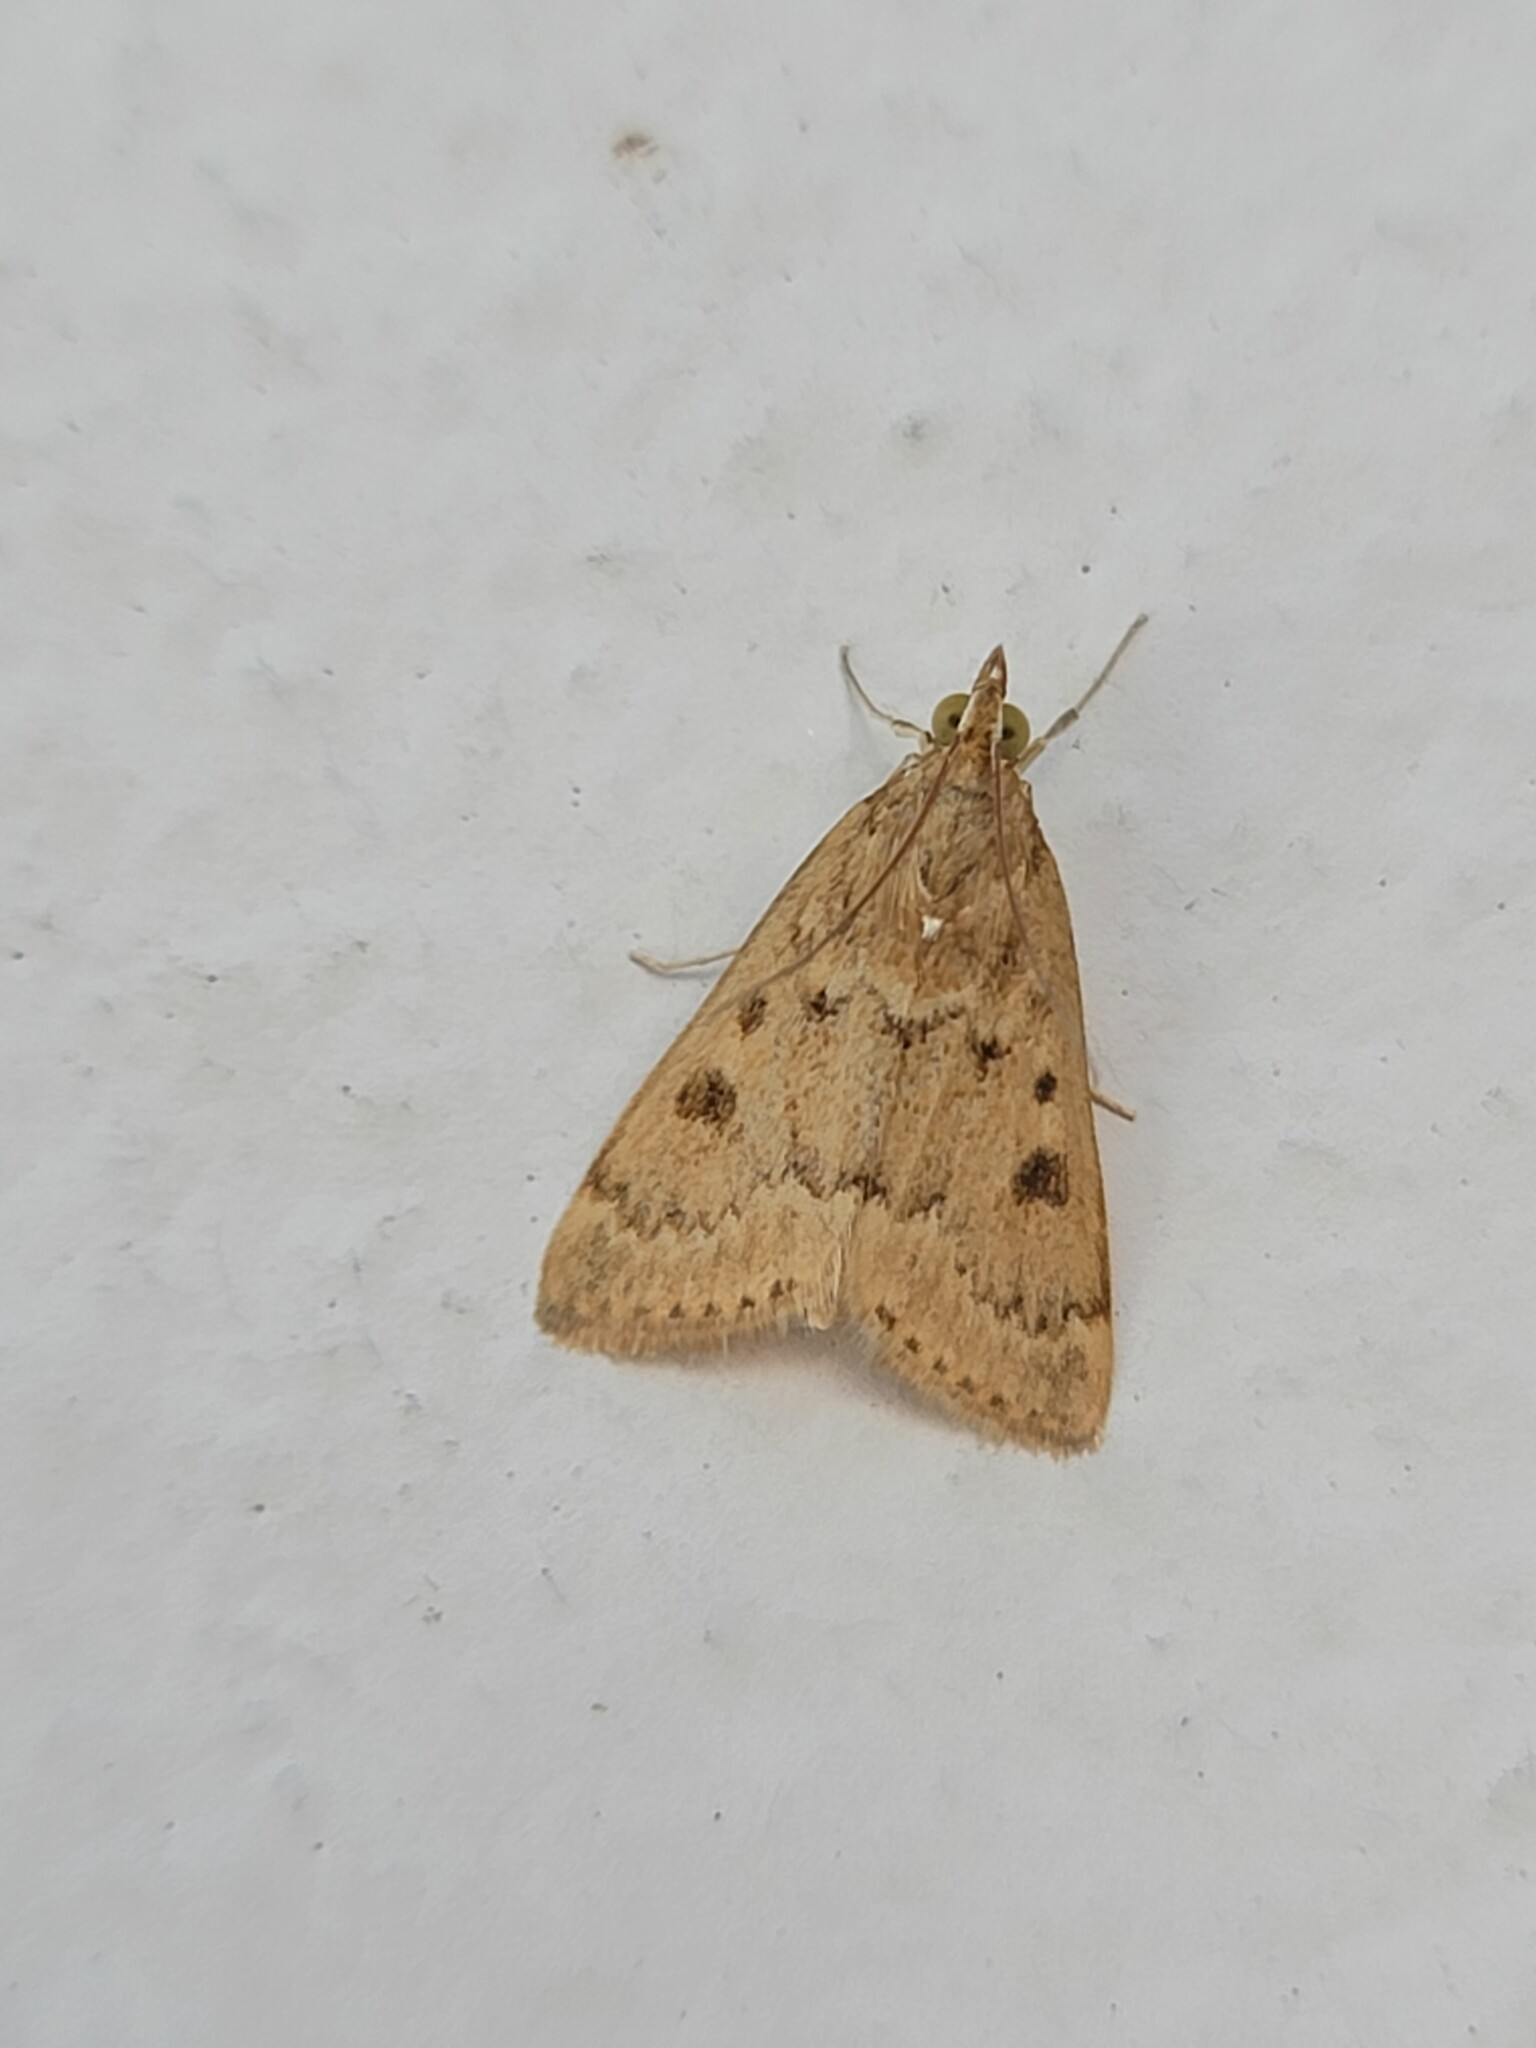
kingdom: Animalia
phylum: Arthropoda
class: Insecta
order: Lepidoptera
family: Crambidae
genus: Achyra
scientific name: Achyra rantalis
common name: Garden webworm
